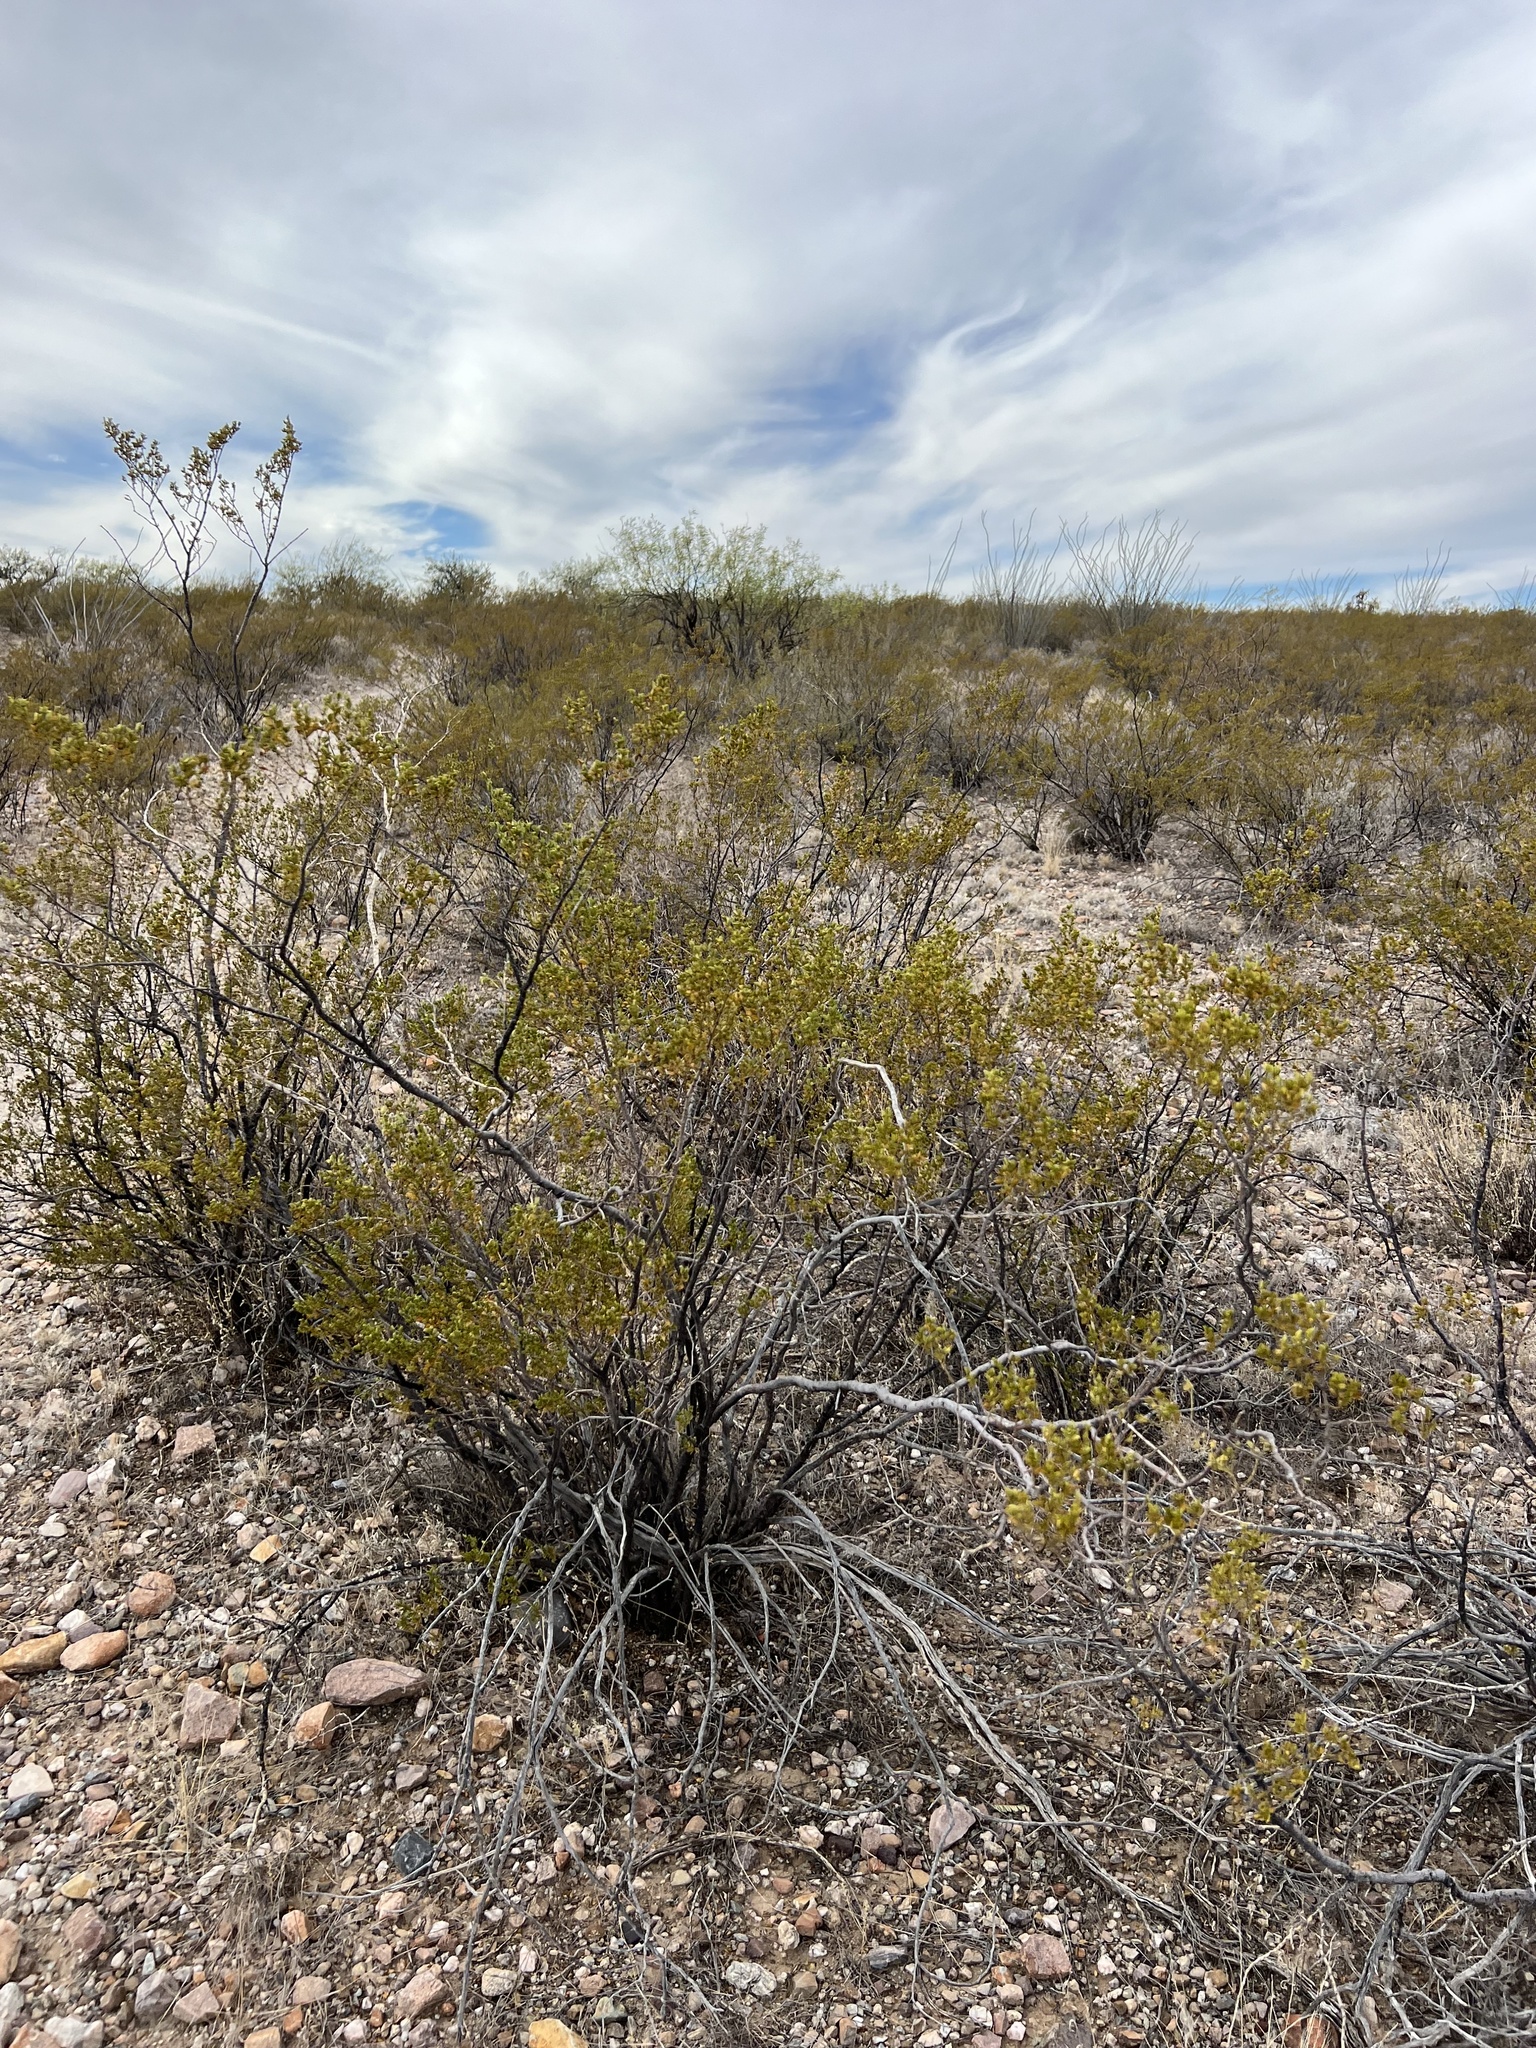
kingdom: Plantae
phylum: Tracheophyta
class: Magnoliopsida
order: Zygophyllales
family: Zygophyllaceae
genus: Larrea
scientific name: Larrea tridentata
